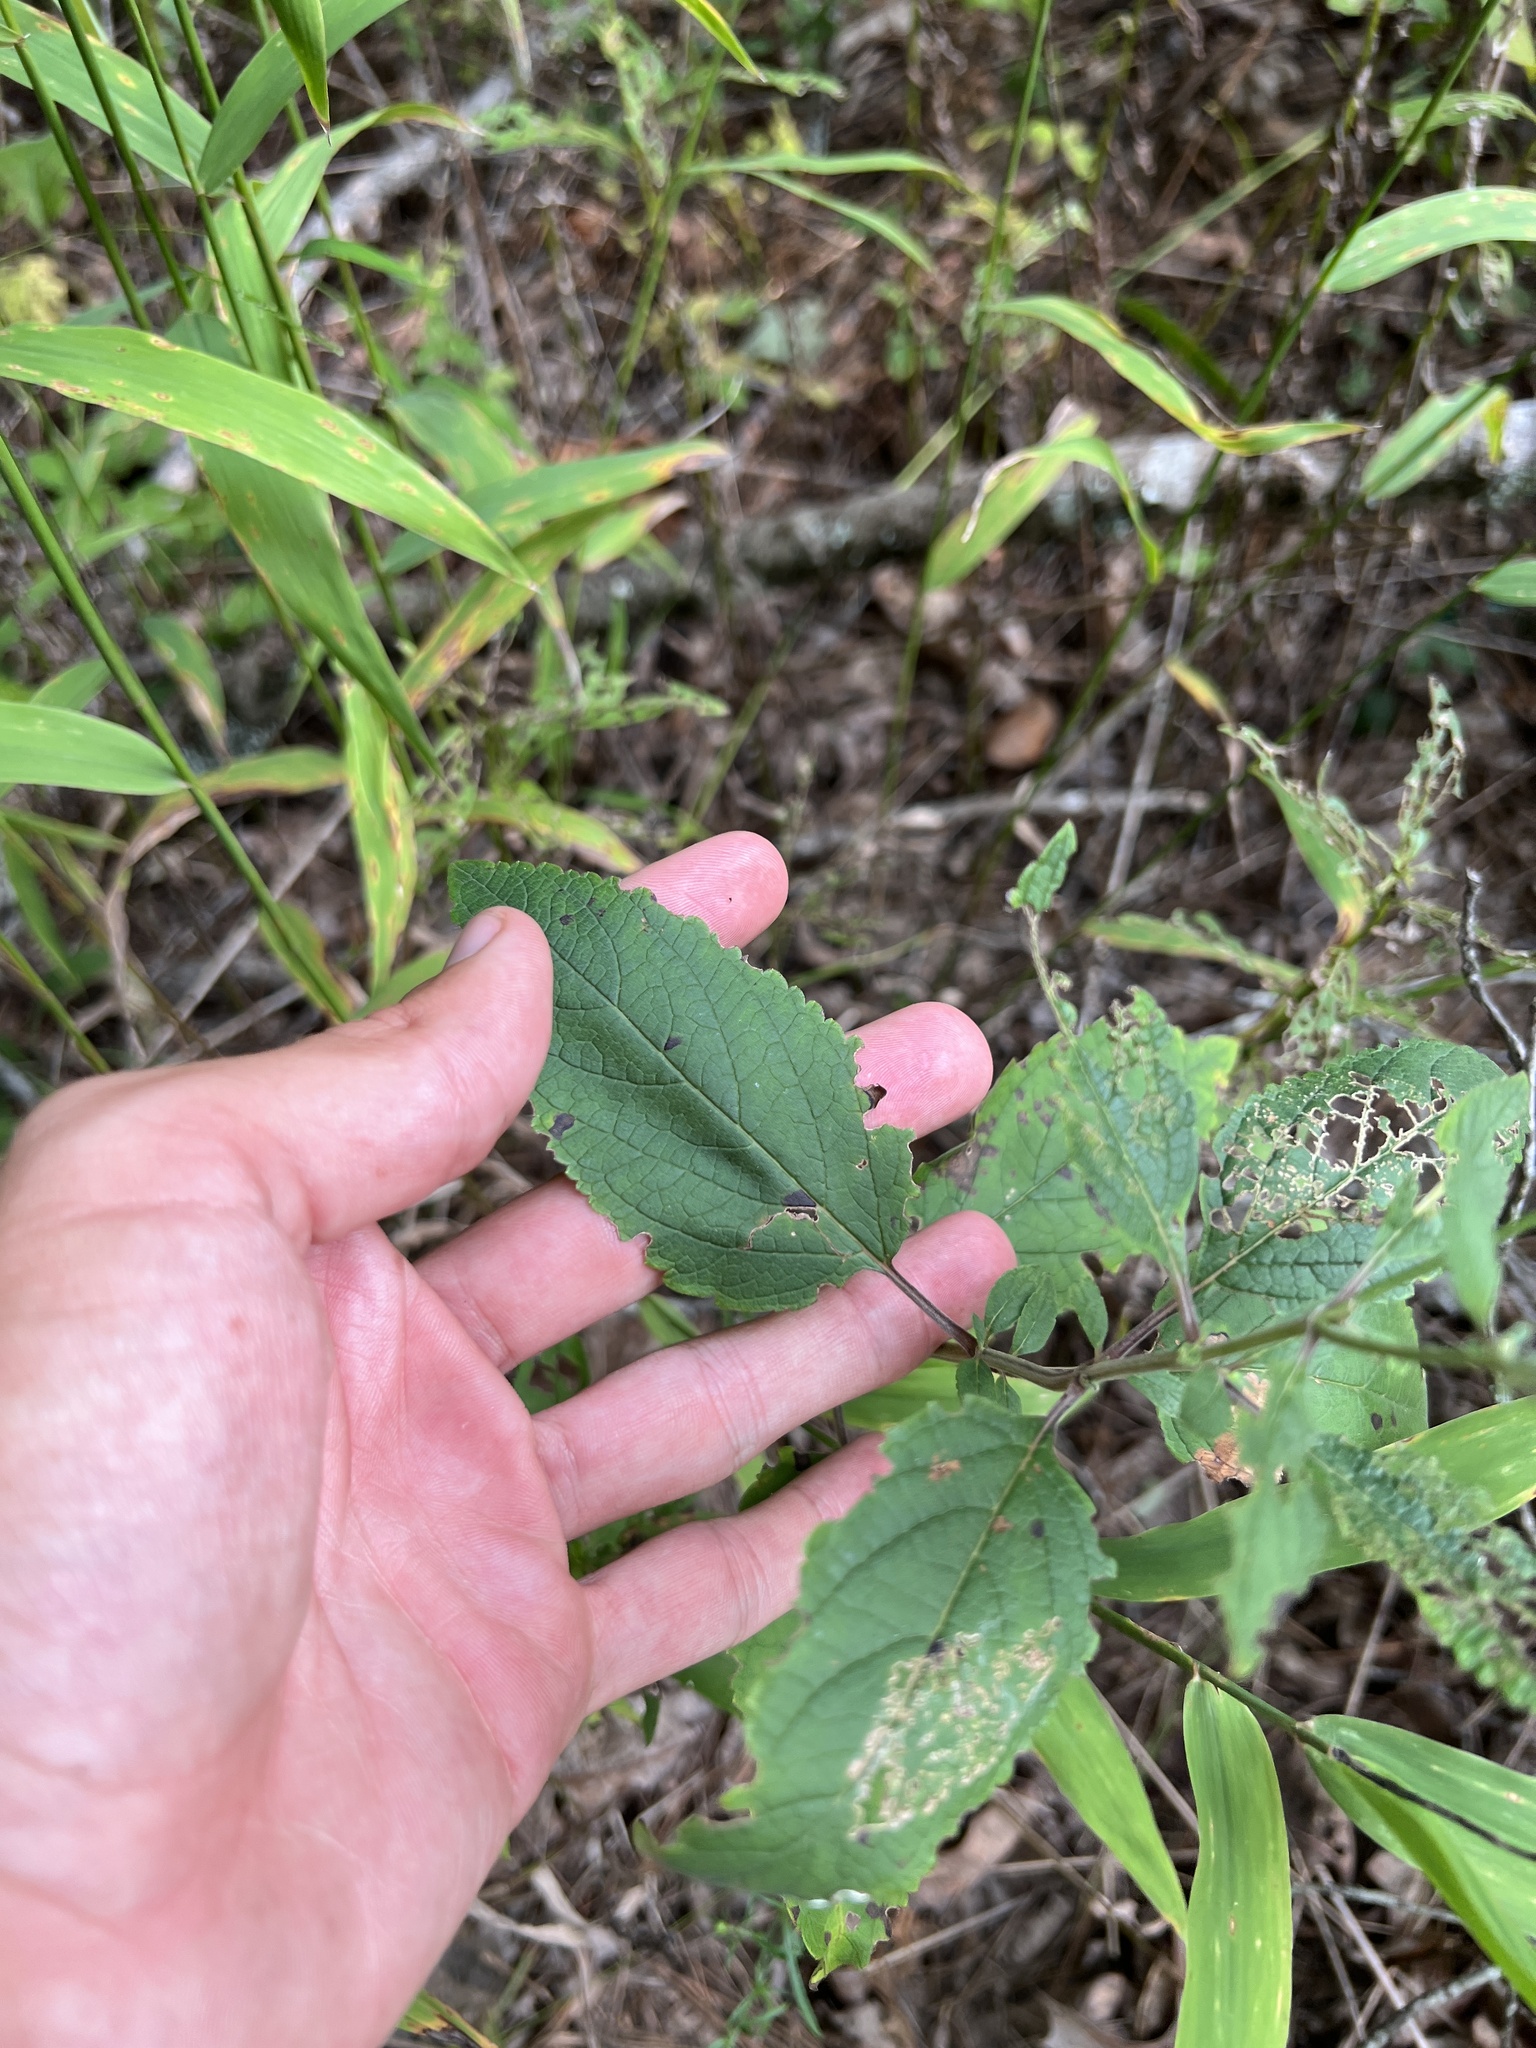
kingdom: Plantae
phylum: Tracheophyta
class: Magnoliopsida
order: Lamiales
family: Lamiaceae
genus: Scutellaria
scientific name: Scutellaria incana
